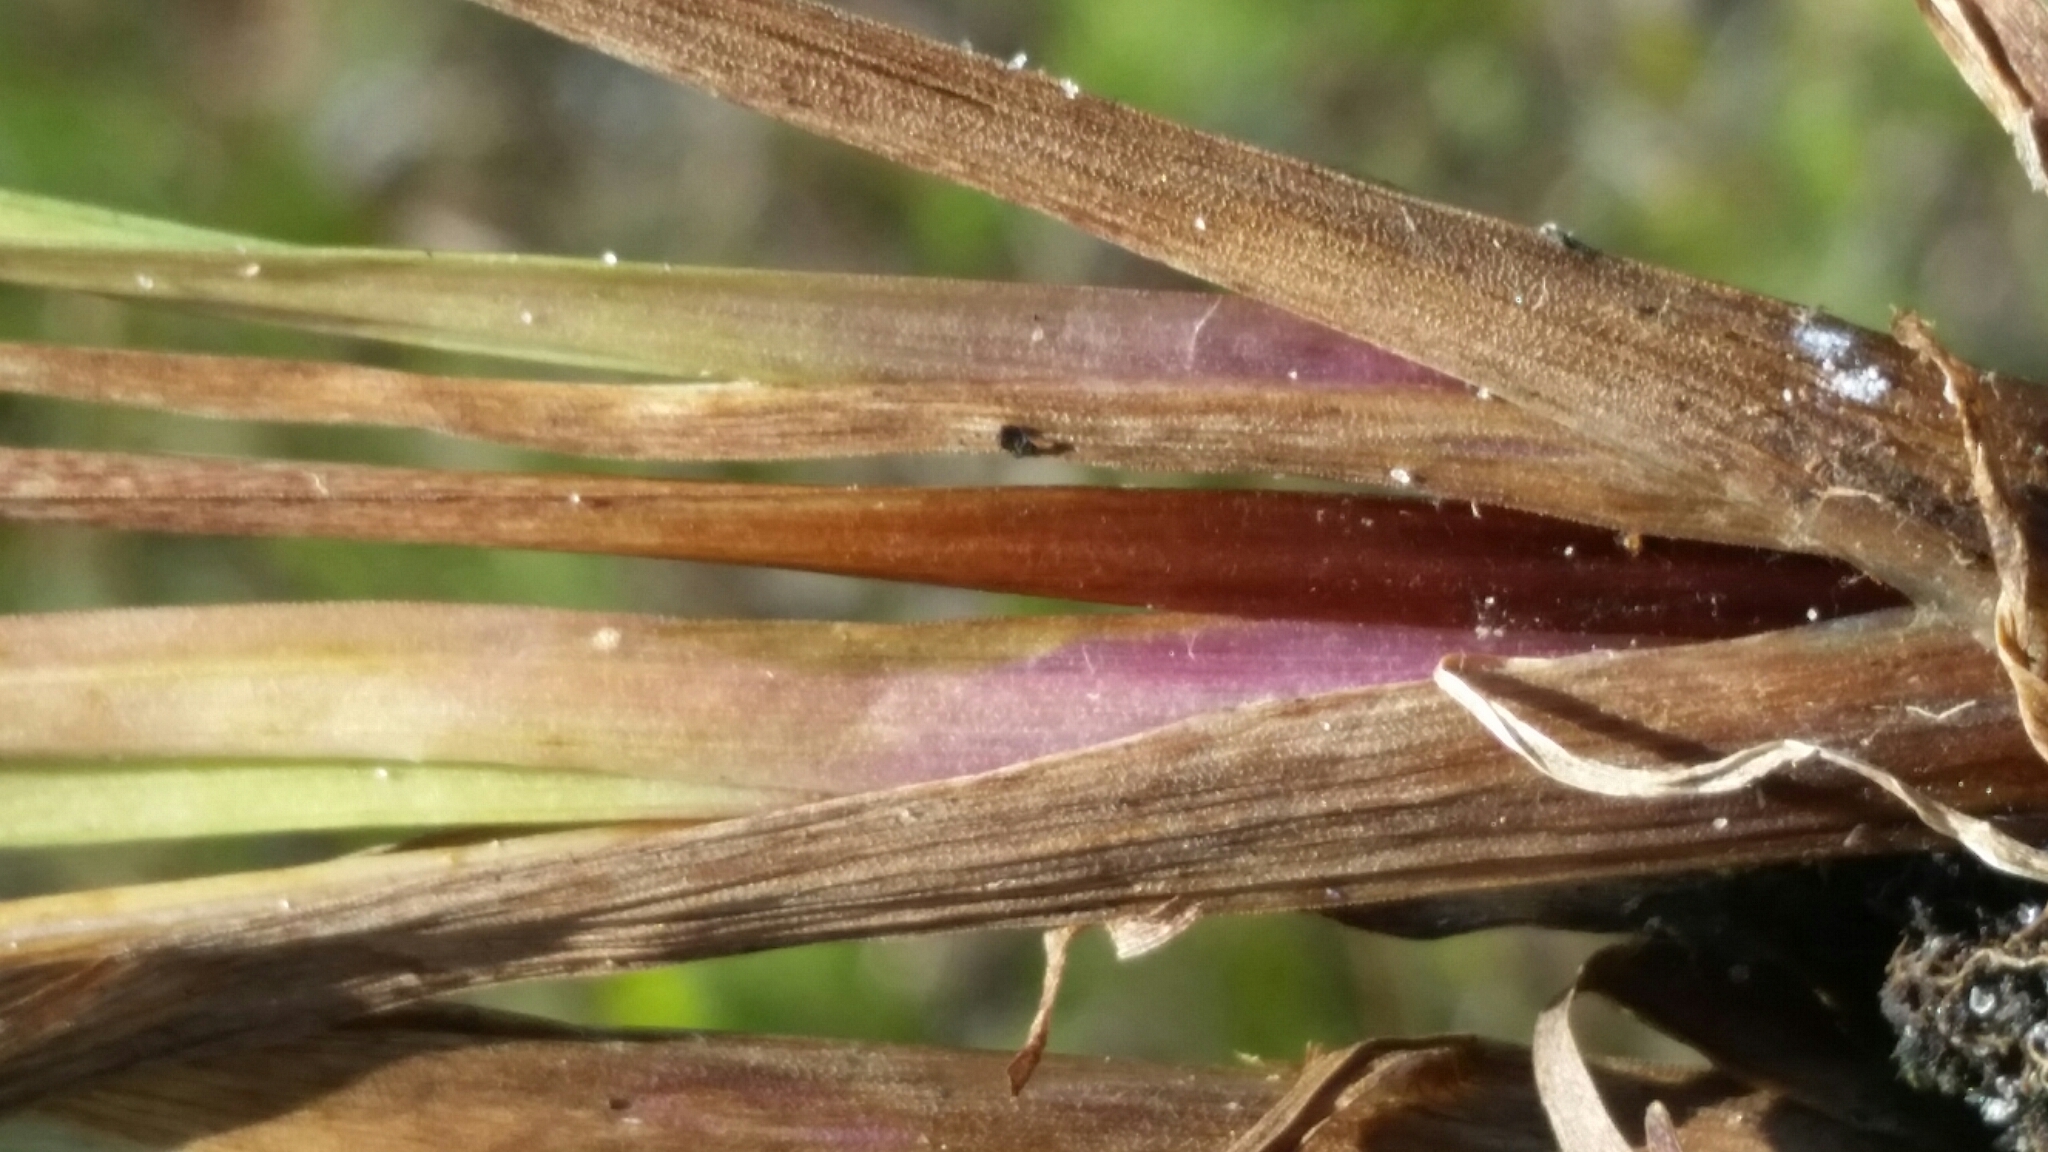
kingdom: Plantae
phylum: Tracheophyta
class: Liliopsida
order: Poales
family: Xyridaceae
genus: Xyris
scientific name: Xyris floridana
